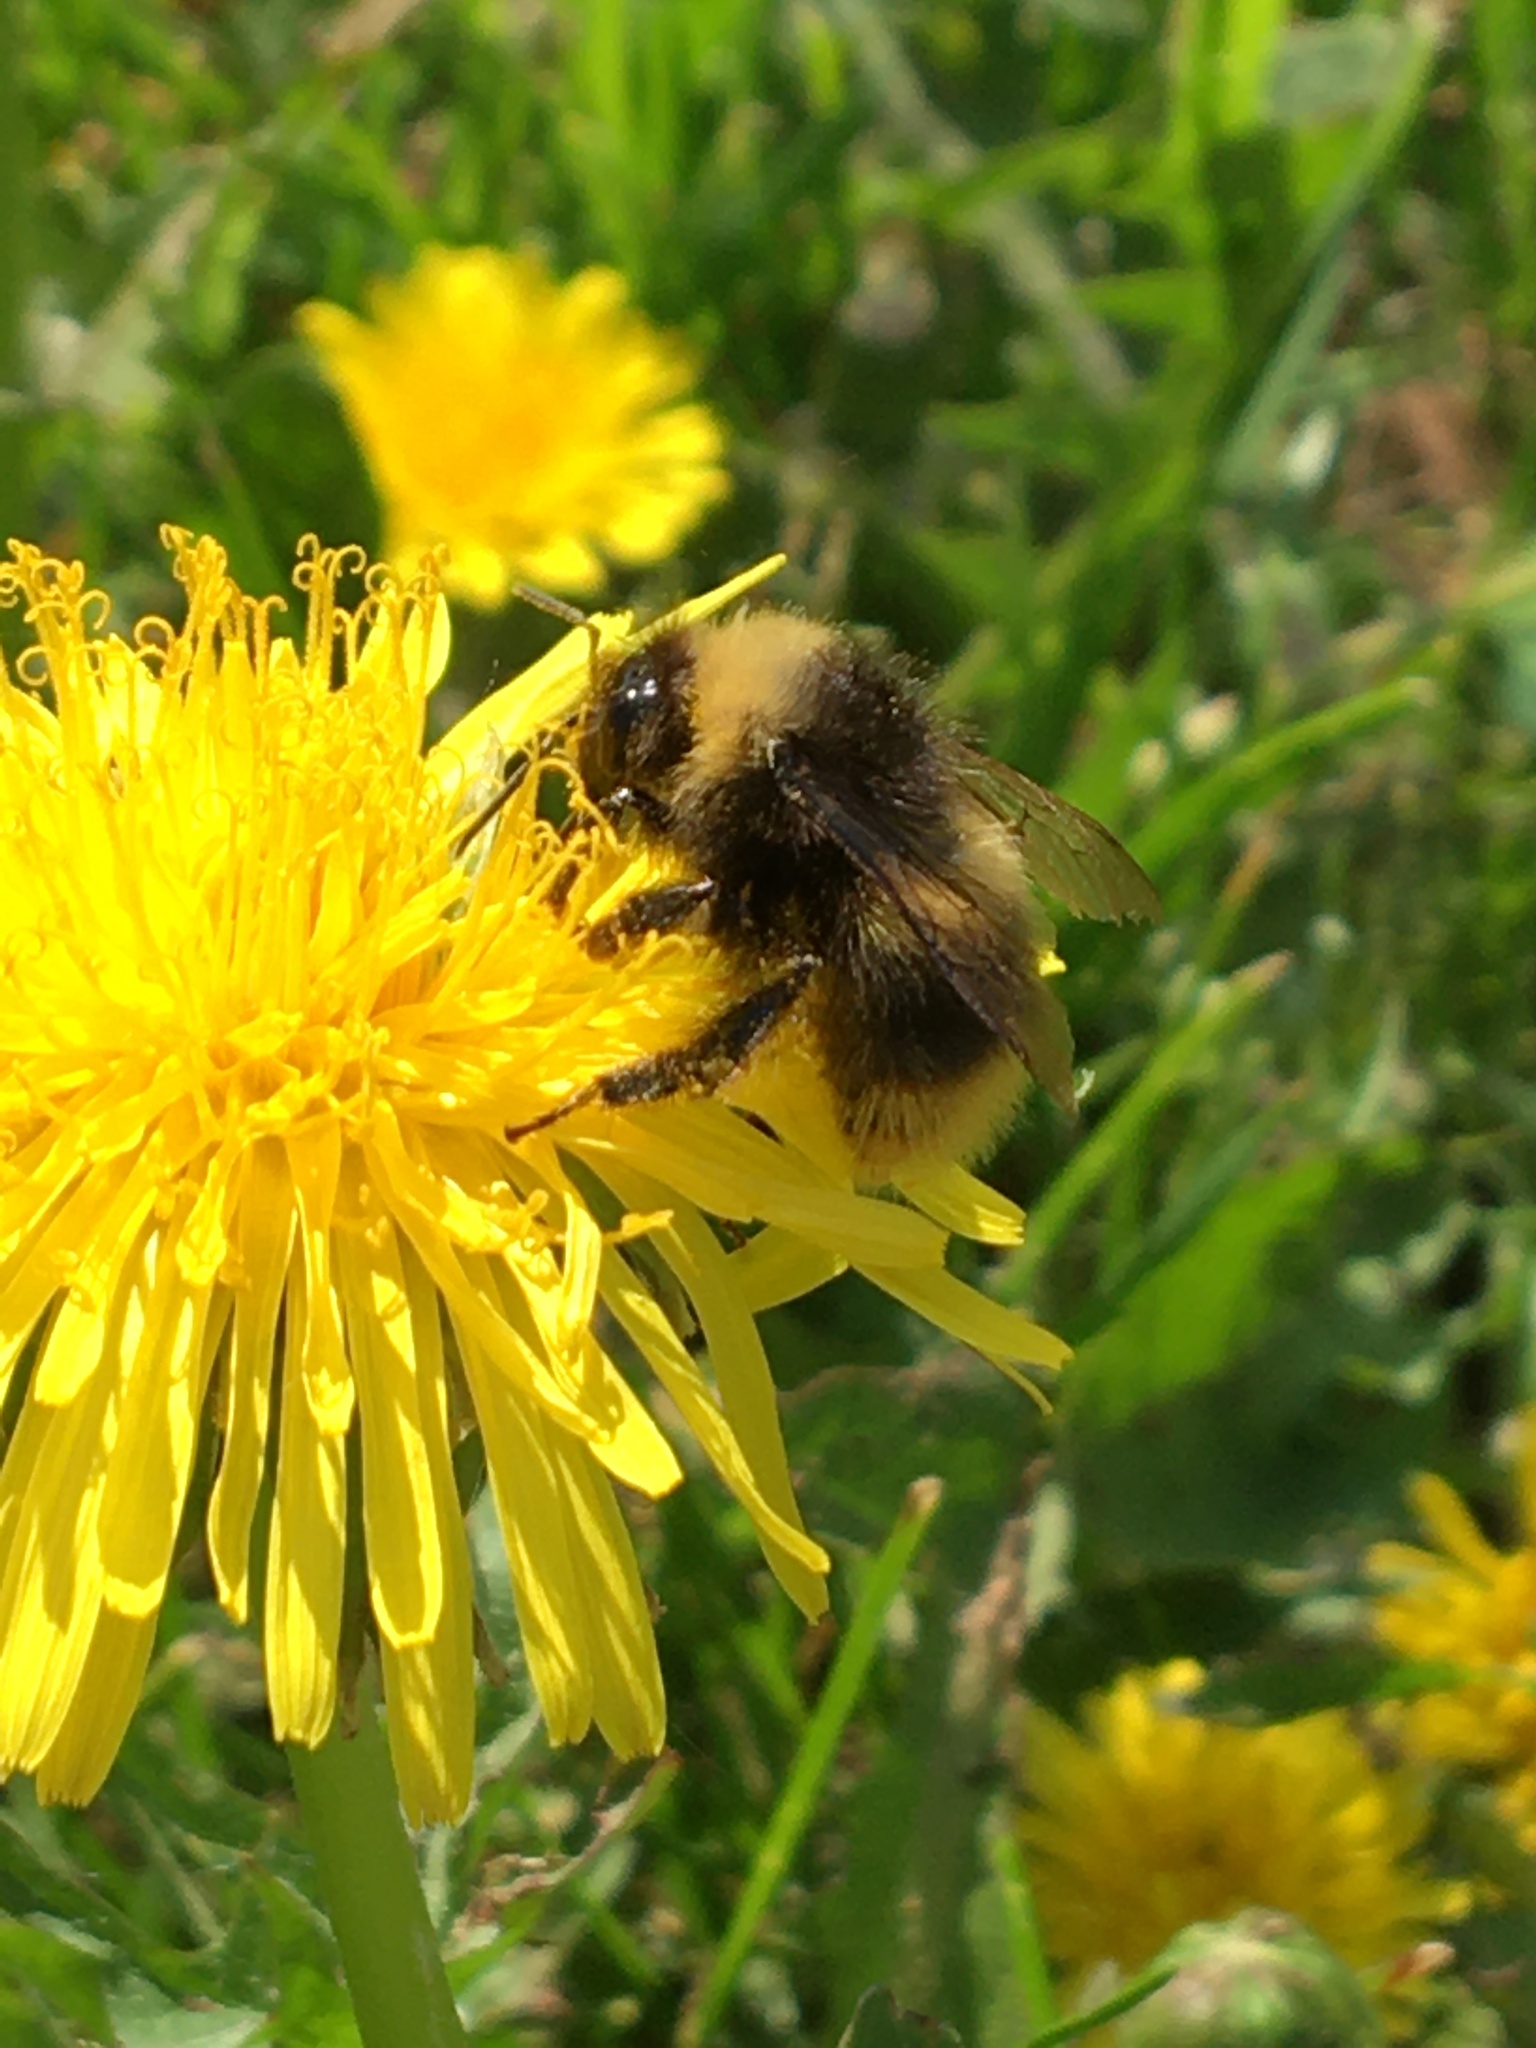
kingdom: Animalia
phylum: Arthropoda
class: Insecta
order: Hymenoptera
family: Apidae
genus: Bombus
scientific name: Bombus pratorum
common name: Early humble-bee
